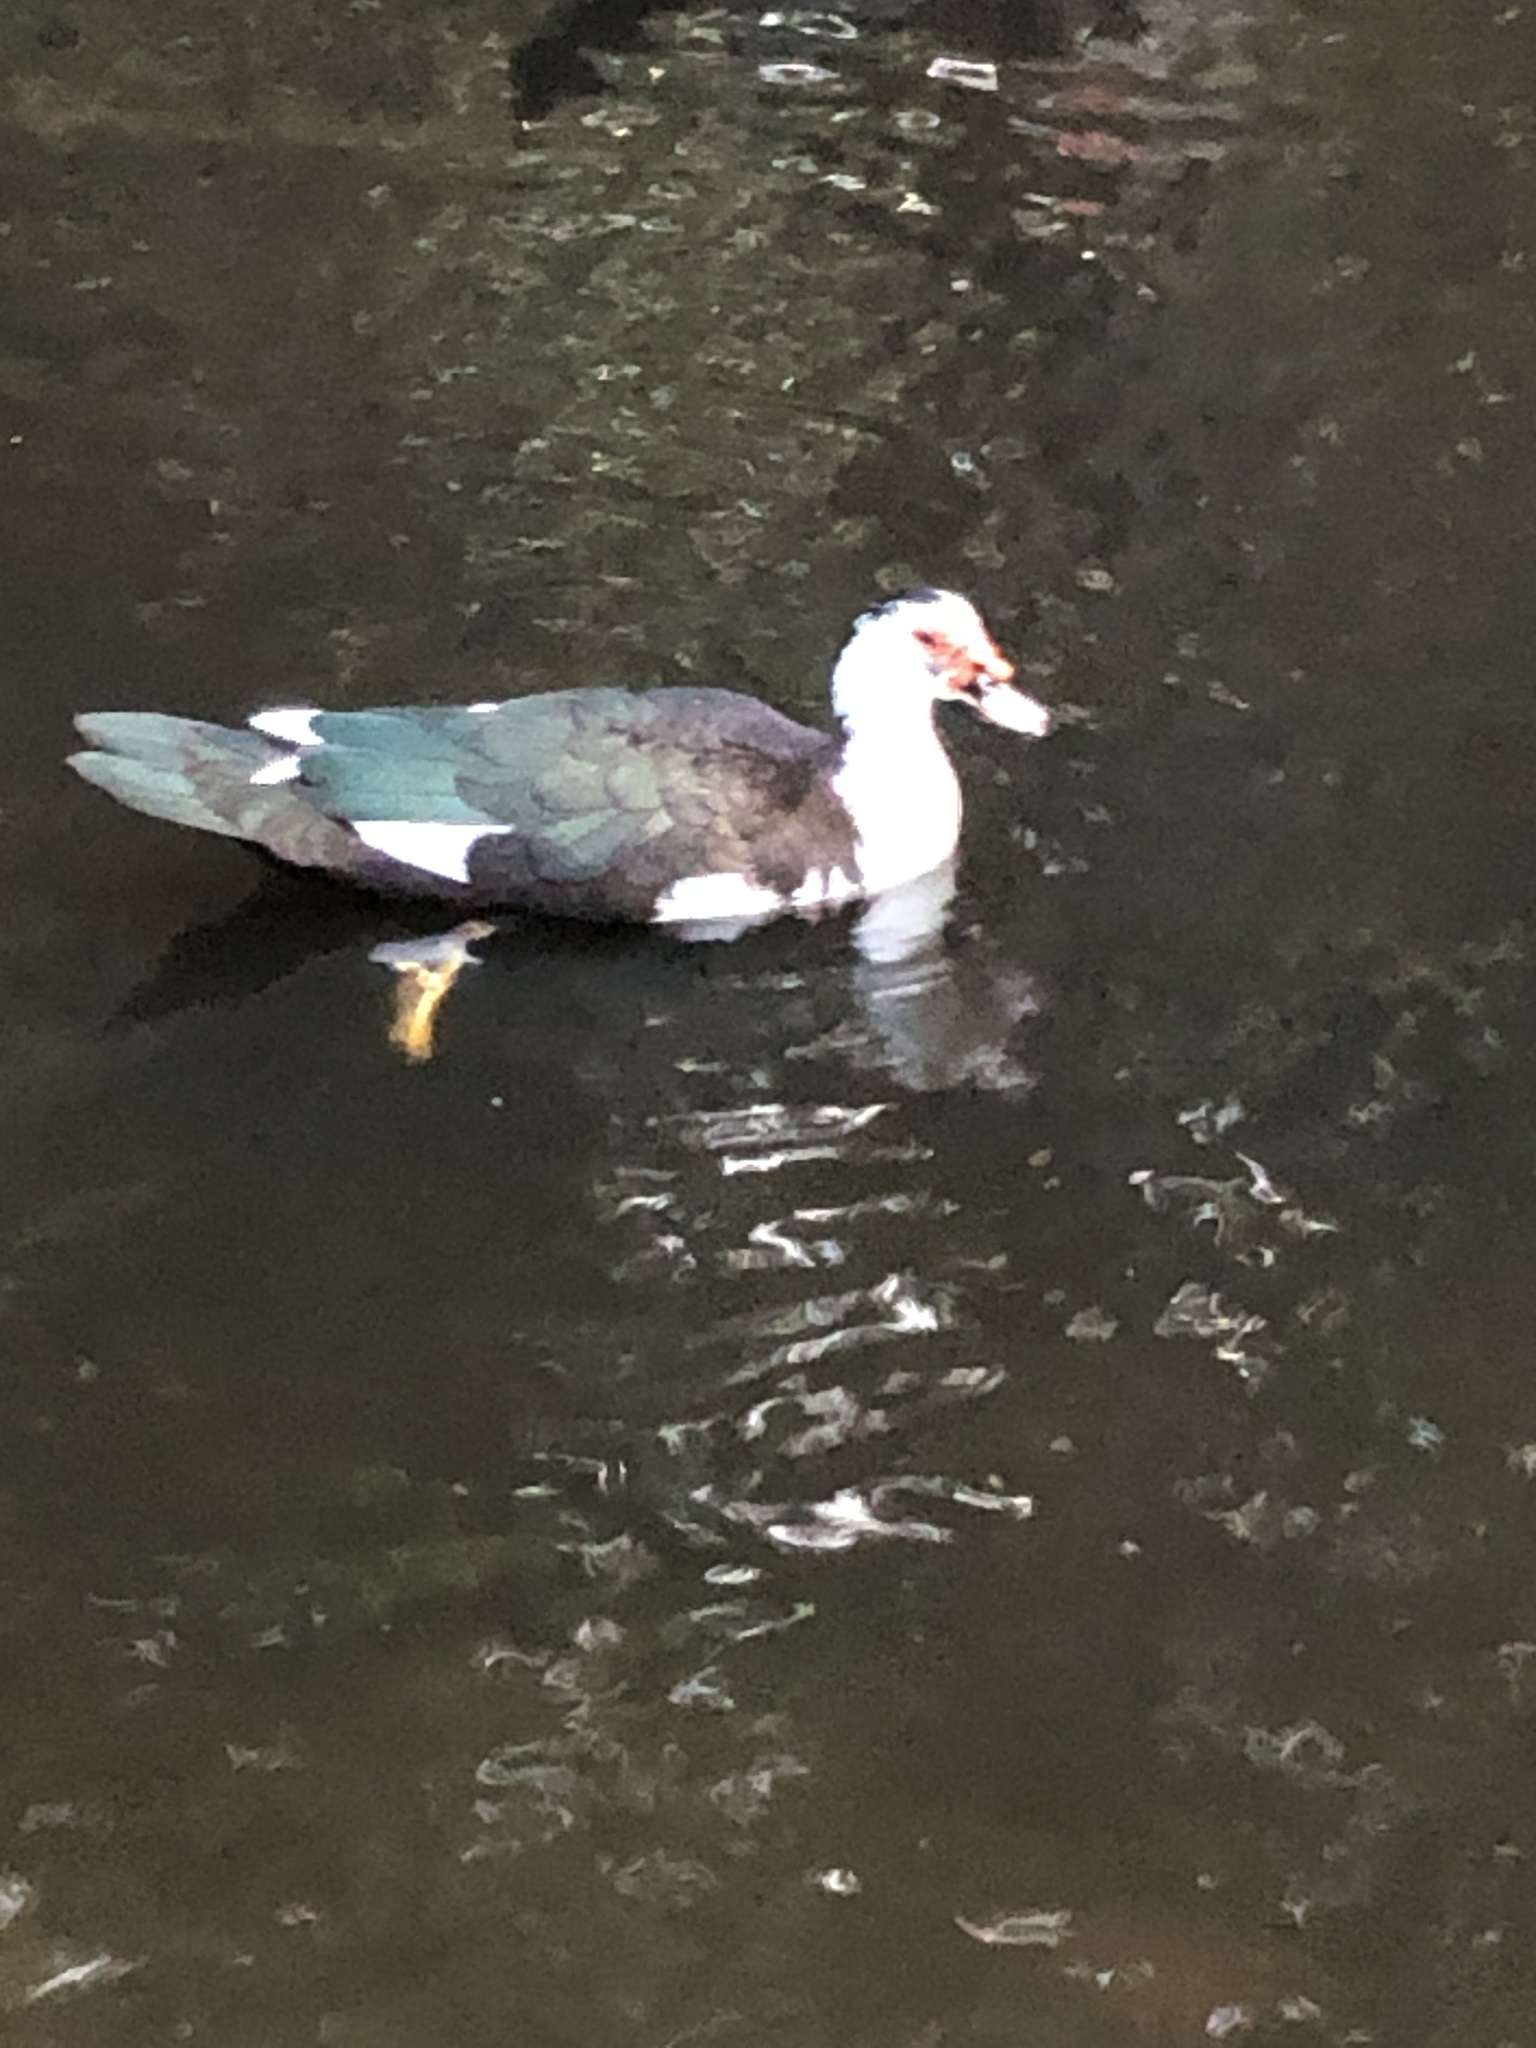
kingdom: Animalia
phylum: Chordata
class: Aves
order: Anseriformes
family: Anatidae
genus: Cairina
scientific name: Cairina moschata
